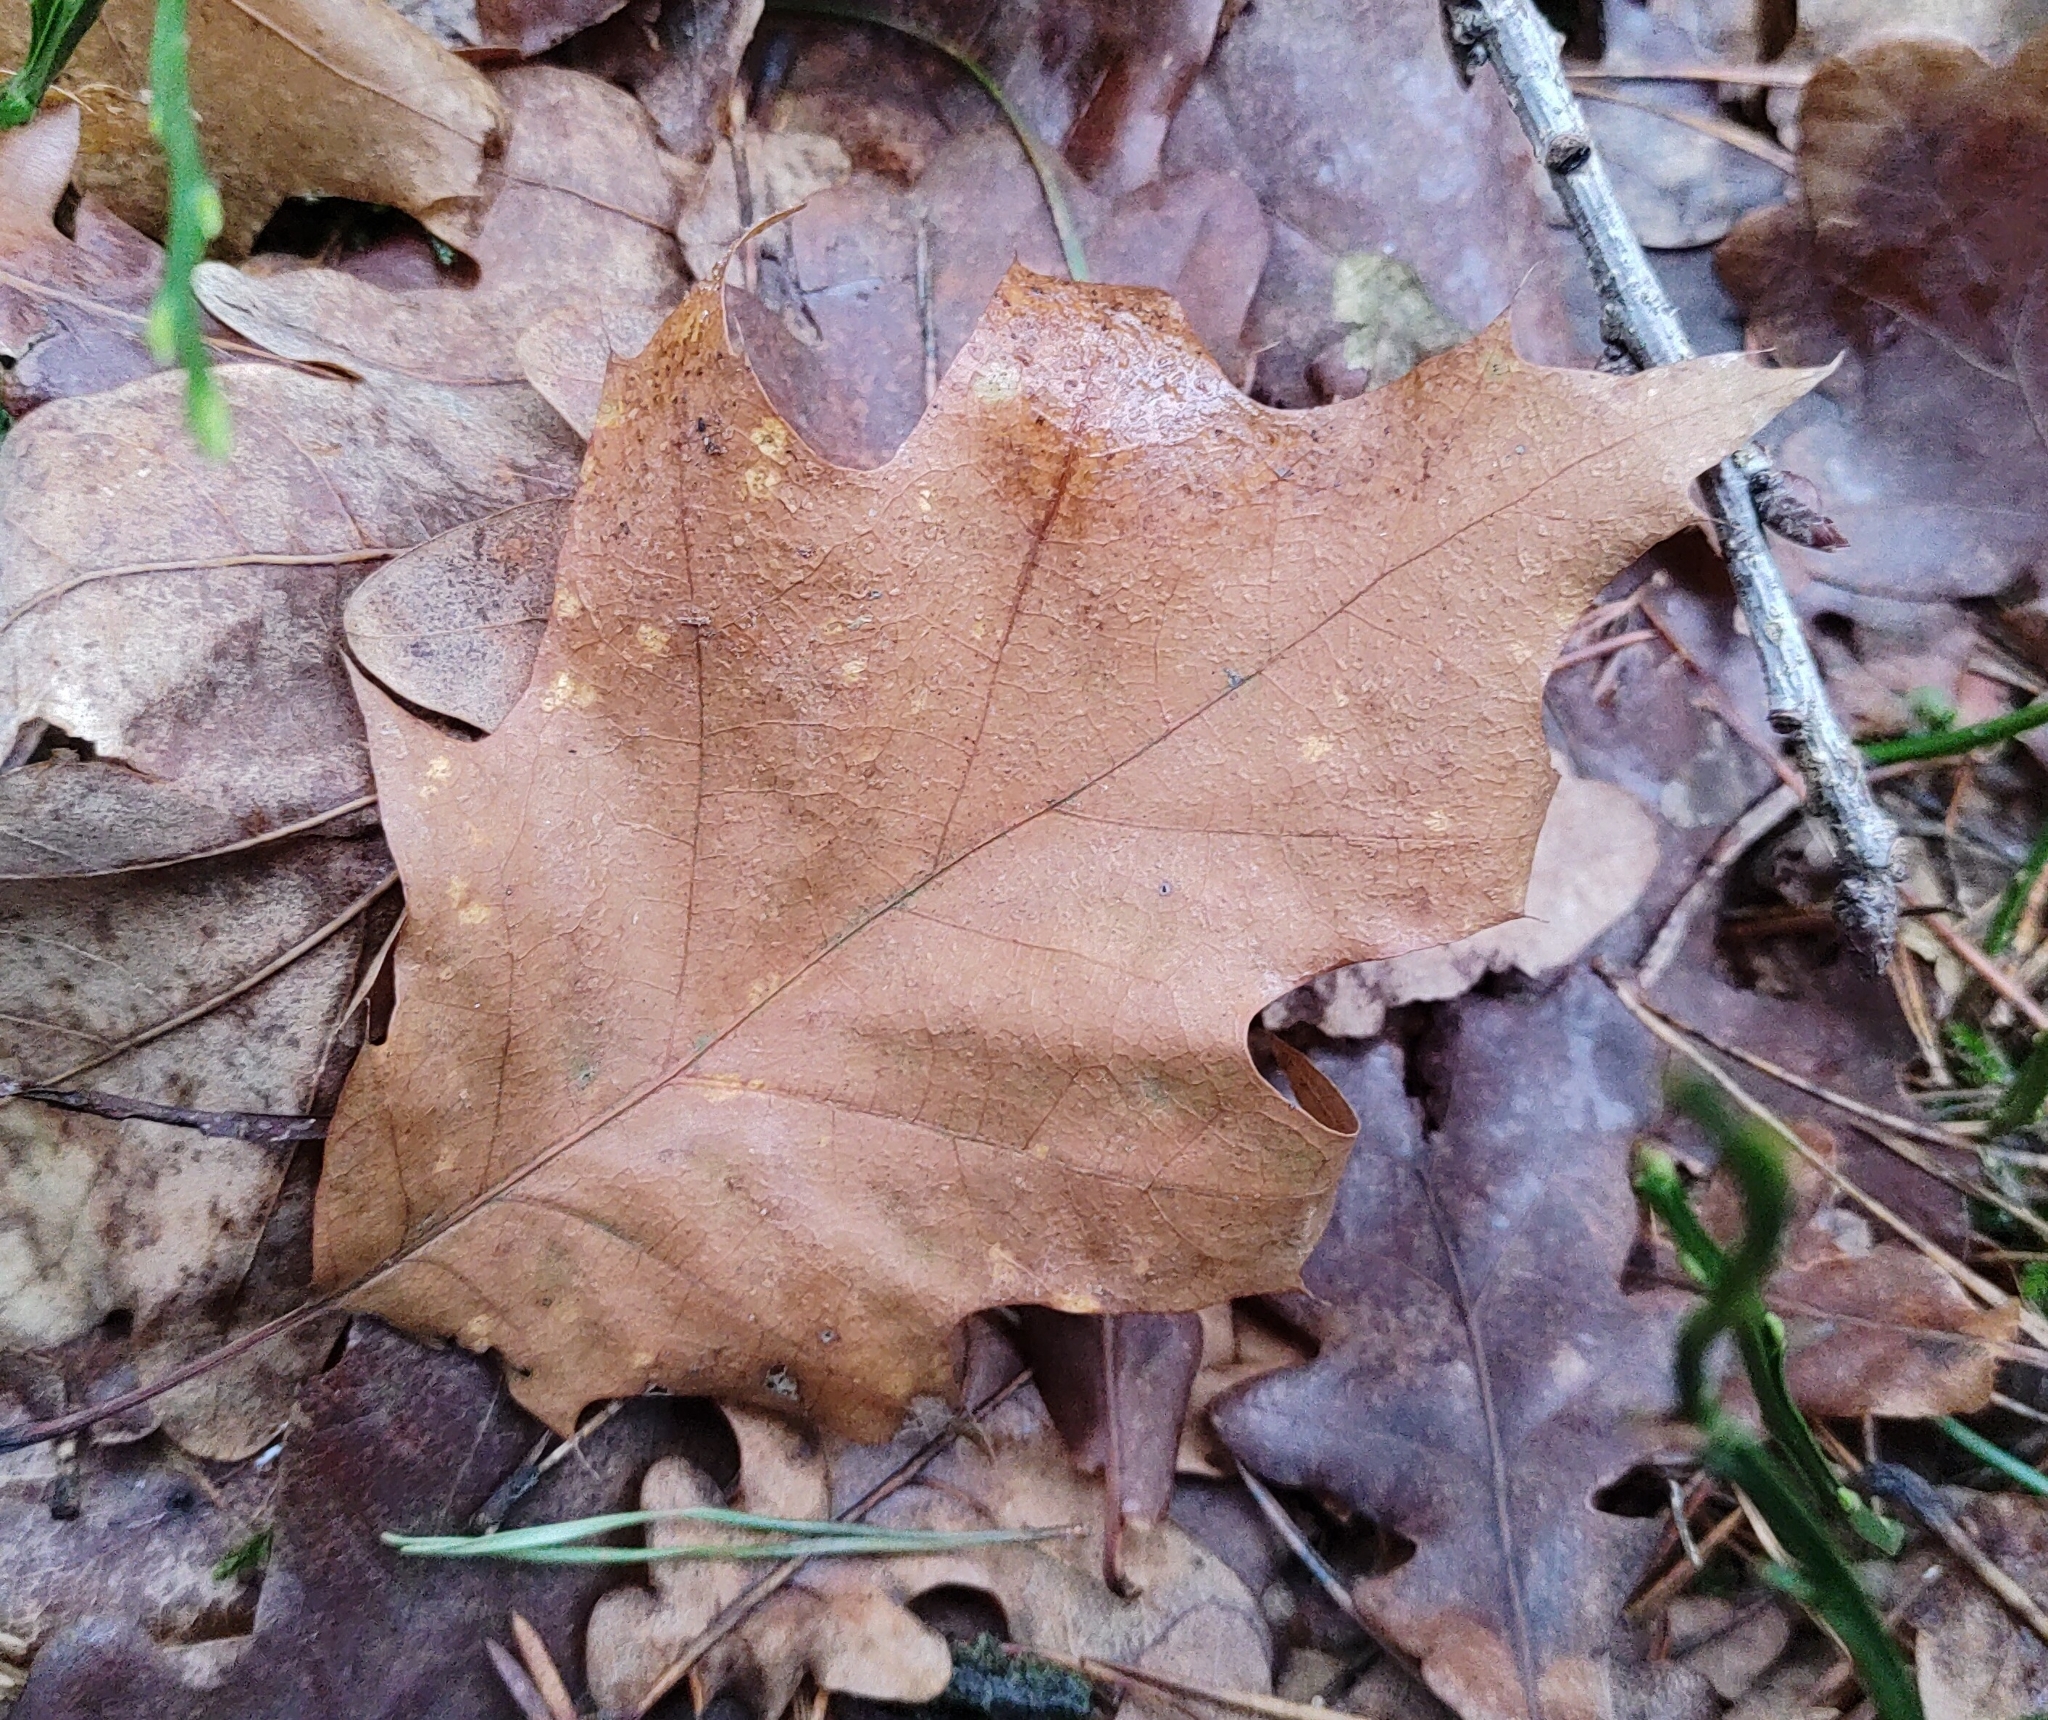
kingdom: Plantae
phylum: Tracheophyta
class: Magnoliopsida
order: Fagales
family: Fagaceae
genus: Quercus
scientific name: Quercus rubra
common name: Red oak
